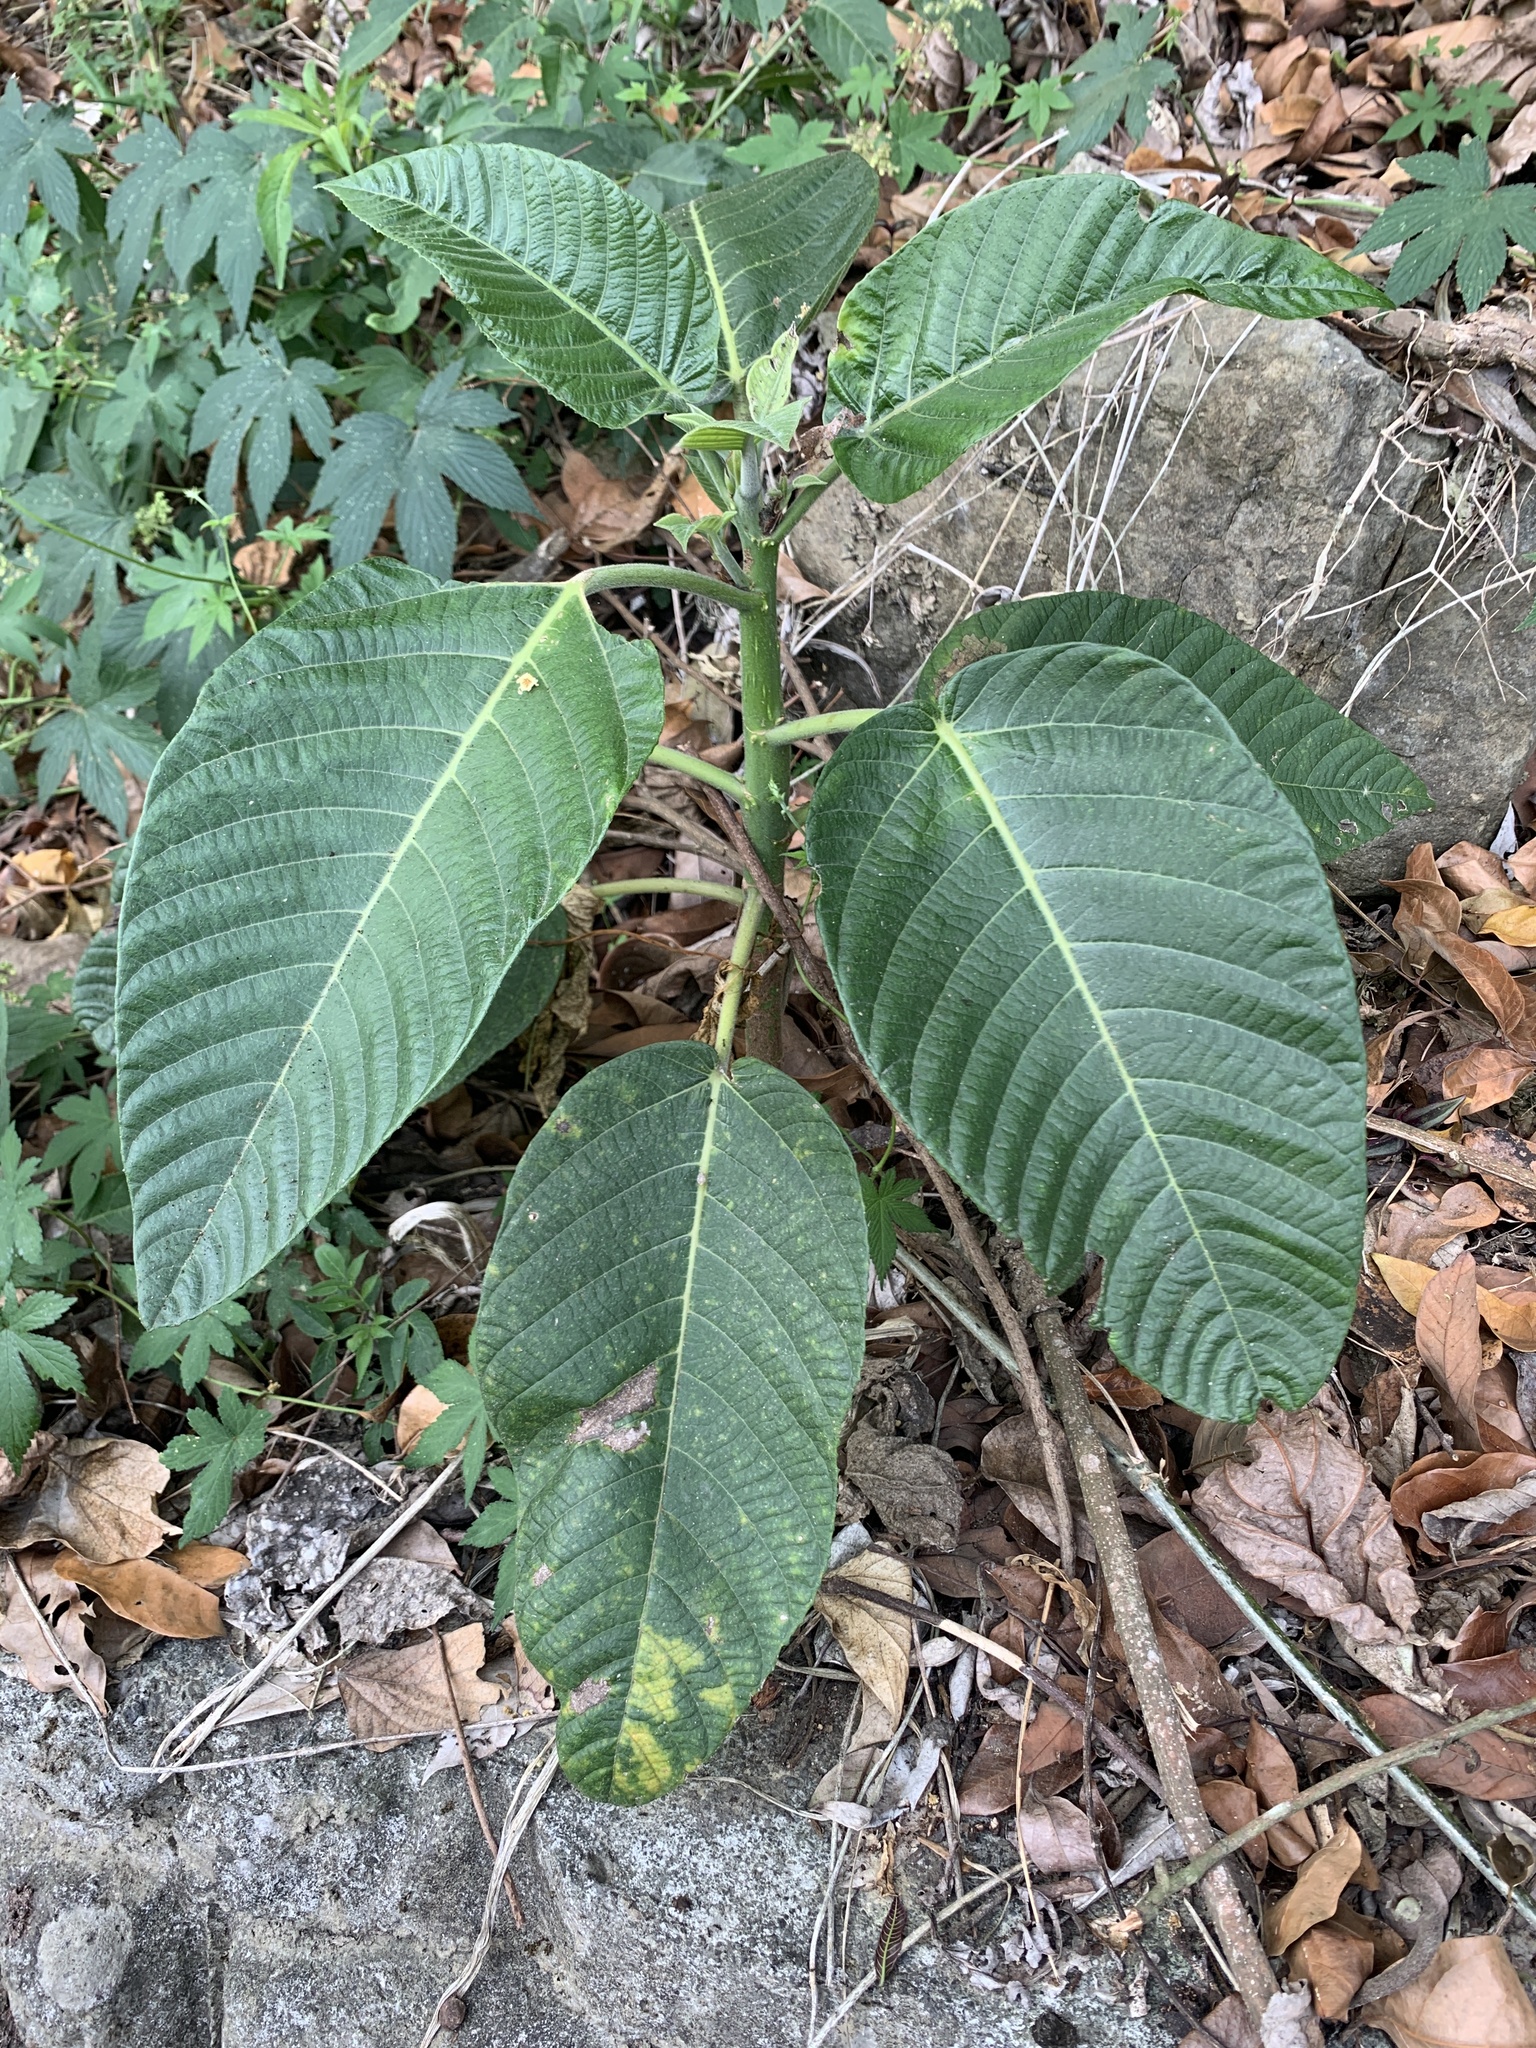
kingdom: Plantae
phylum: Tracheophyta
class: Magnoliopsida
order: Rosales
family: Urticaceae
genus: Dendrocnide
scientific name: Dendrocnide meyeniana
